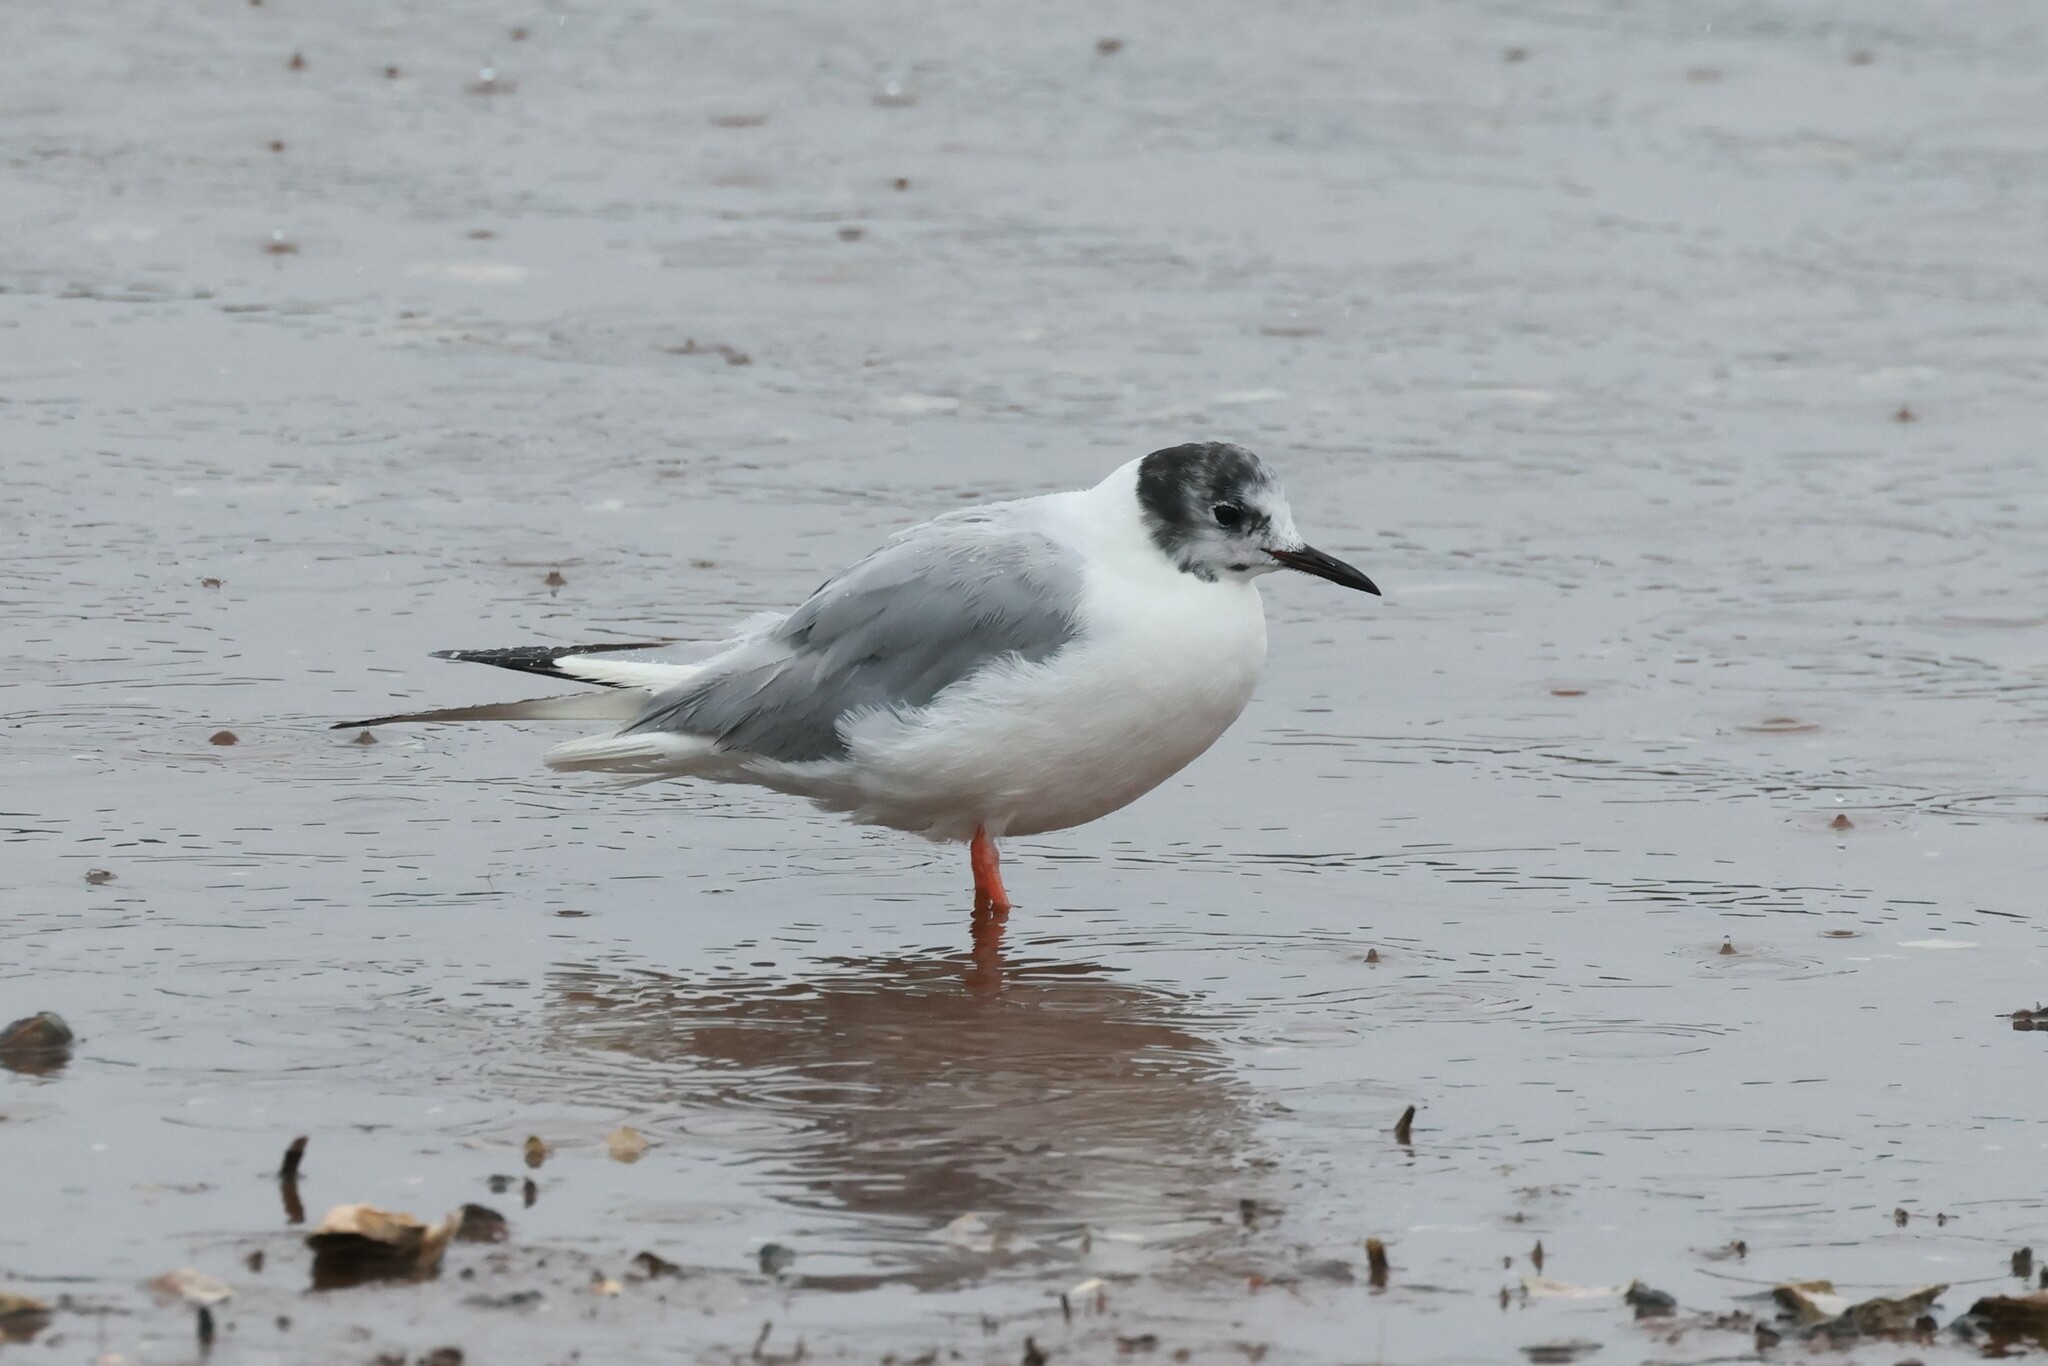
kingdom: Animalia
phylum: Chordata
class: Aves
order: Charadriiformes
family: Laridae
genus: Chroicocephalus
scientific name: Chroicocephalus philadelphia
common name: Bonaparte's gull
